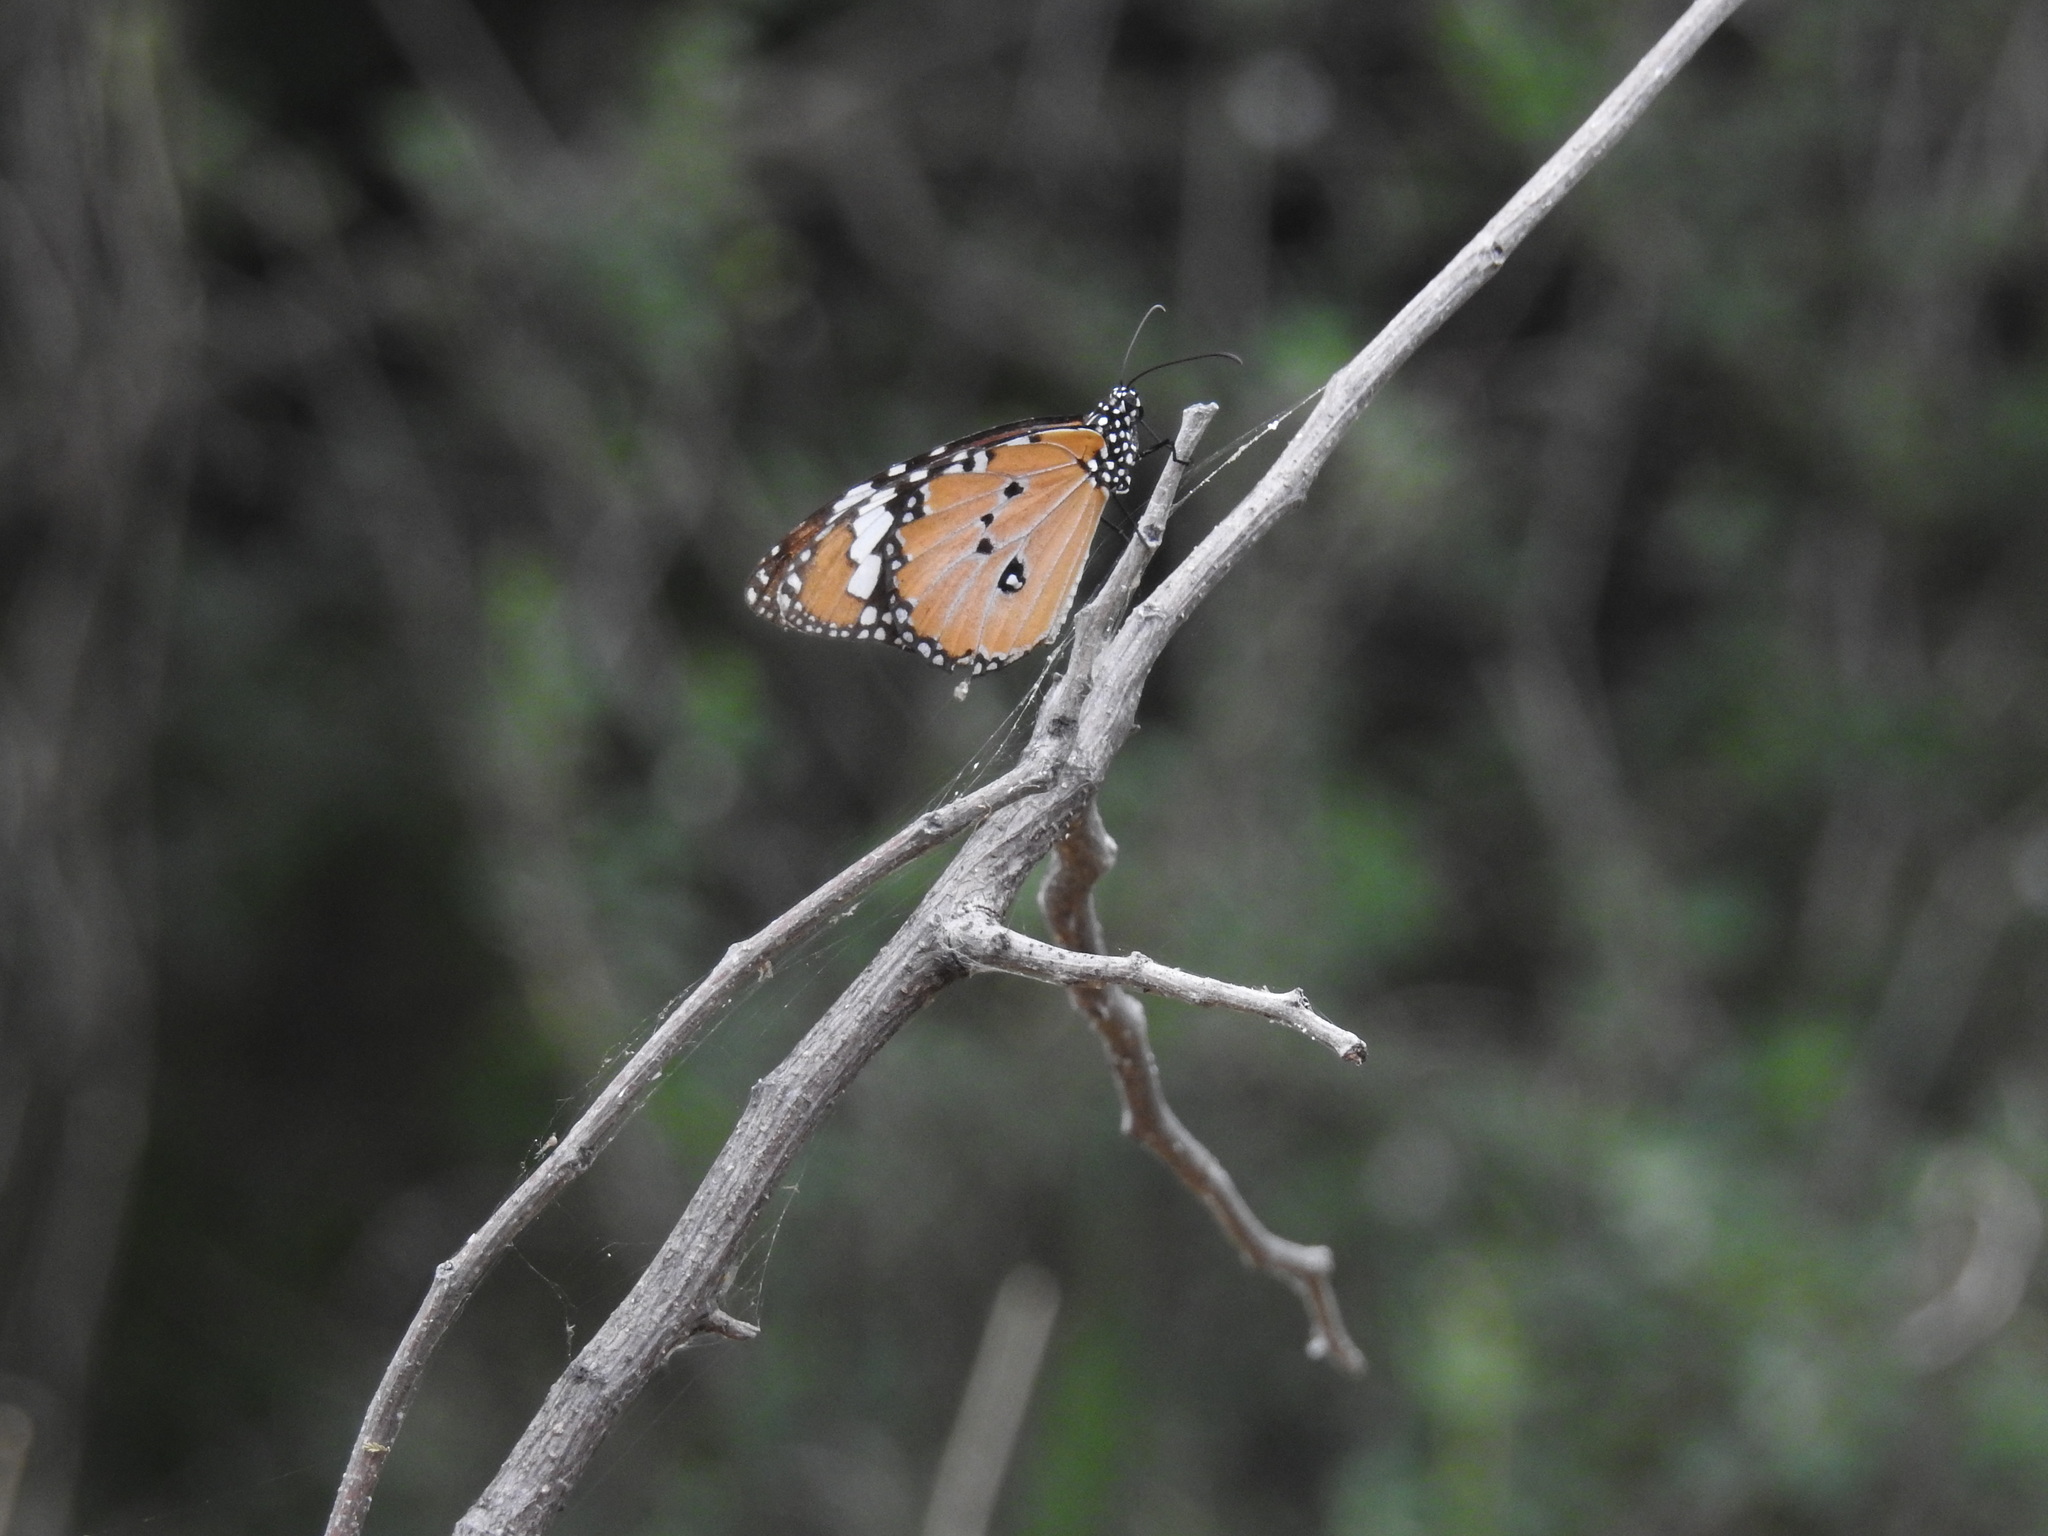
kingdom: Animalia
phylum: Arthropoda
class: Insecta
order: Lepidoptera
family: Nymphalidae
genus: Danaus
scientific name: Danaus chrysippus
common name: Plain tiger
